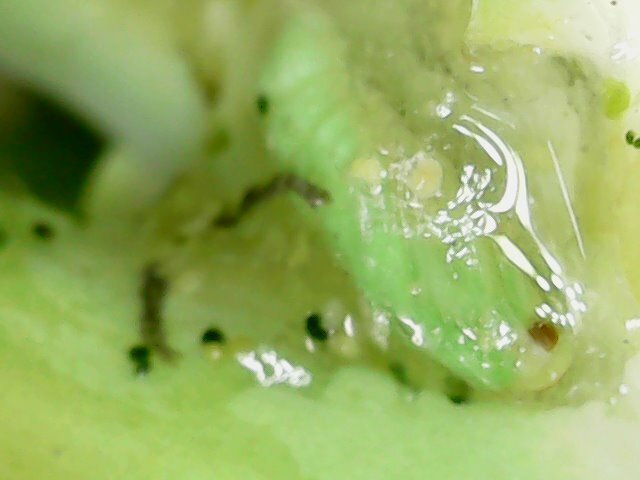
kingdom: Animalia
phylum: Arthropoda
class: Insecta
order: Lepidoptera
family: Plutellidae
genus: Plutella
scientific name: Plutella xylostella
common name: Diamond-back moth
